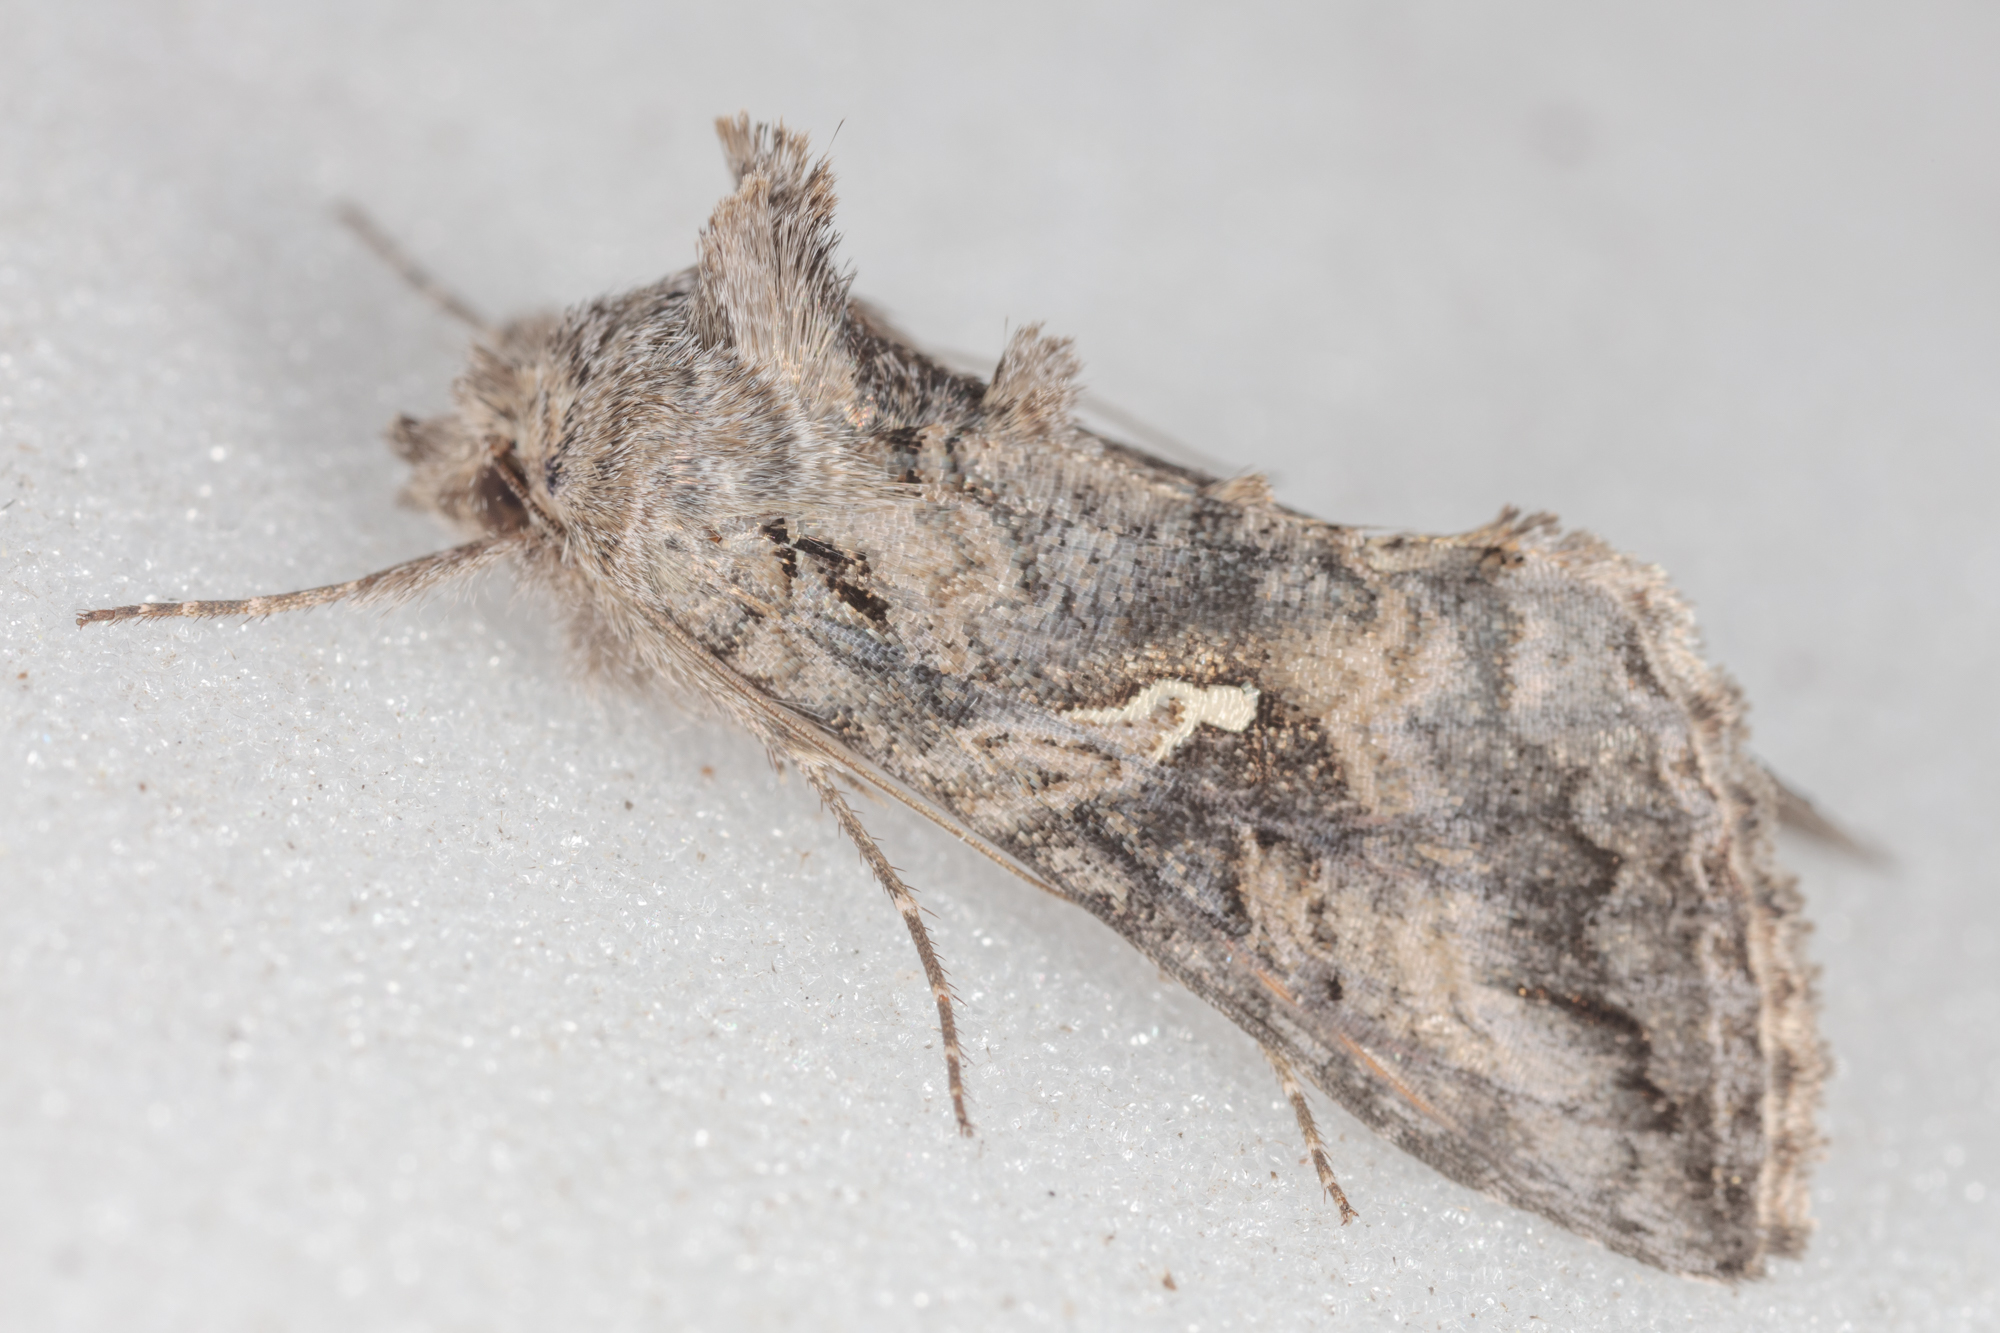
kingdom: Animalia
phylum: Arthropoda
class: Insecta
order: Lepidoptera
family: Noctuidae
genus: Rachiplusia
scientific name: Rachiplusia ou
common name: Gray looper moth
